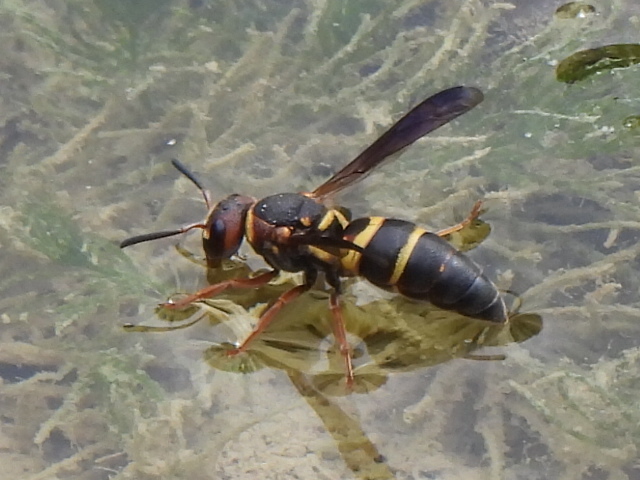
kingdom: Animalia
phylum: Arthropoda
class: Insecta
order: Hymenoptera
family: Eumenidae
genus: Euodynerus
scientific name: Euodynerus annulatus
